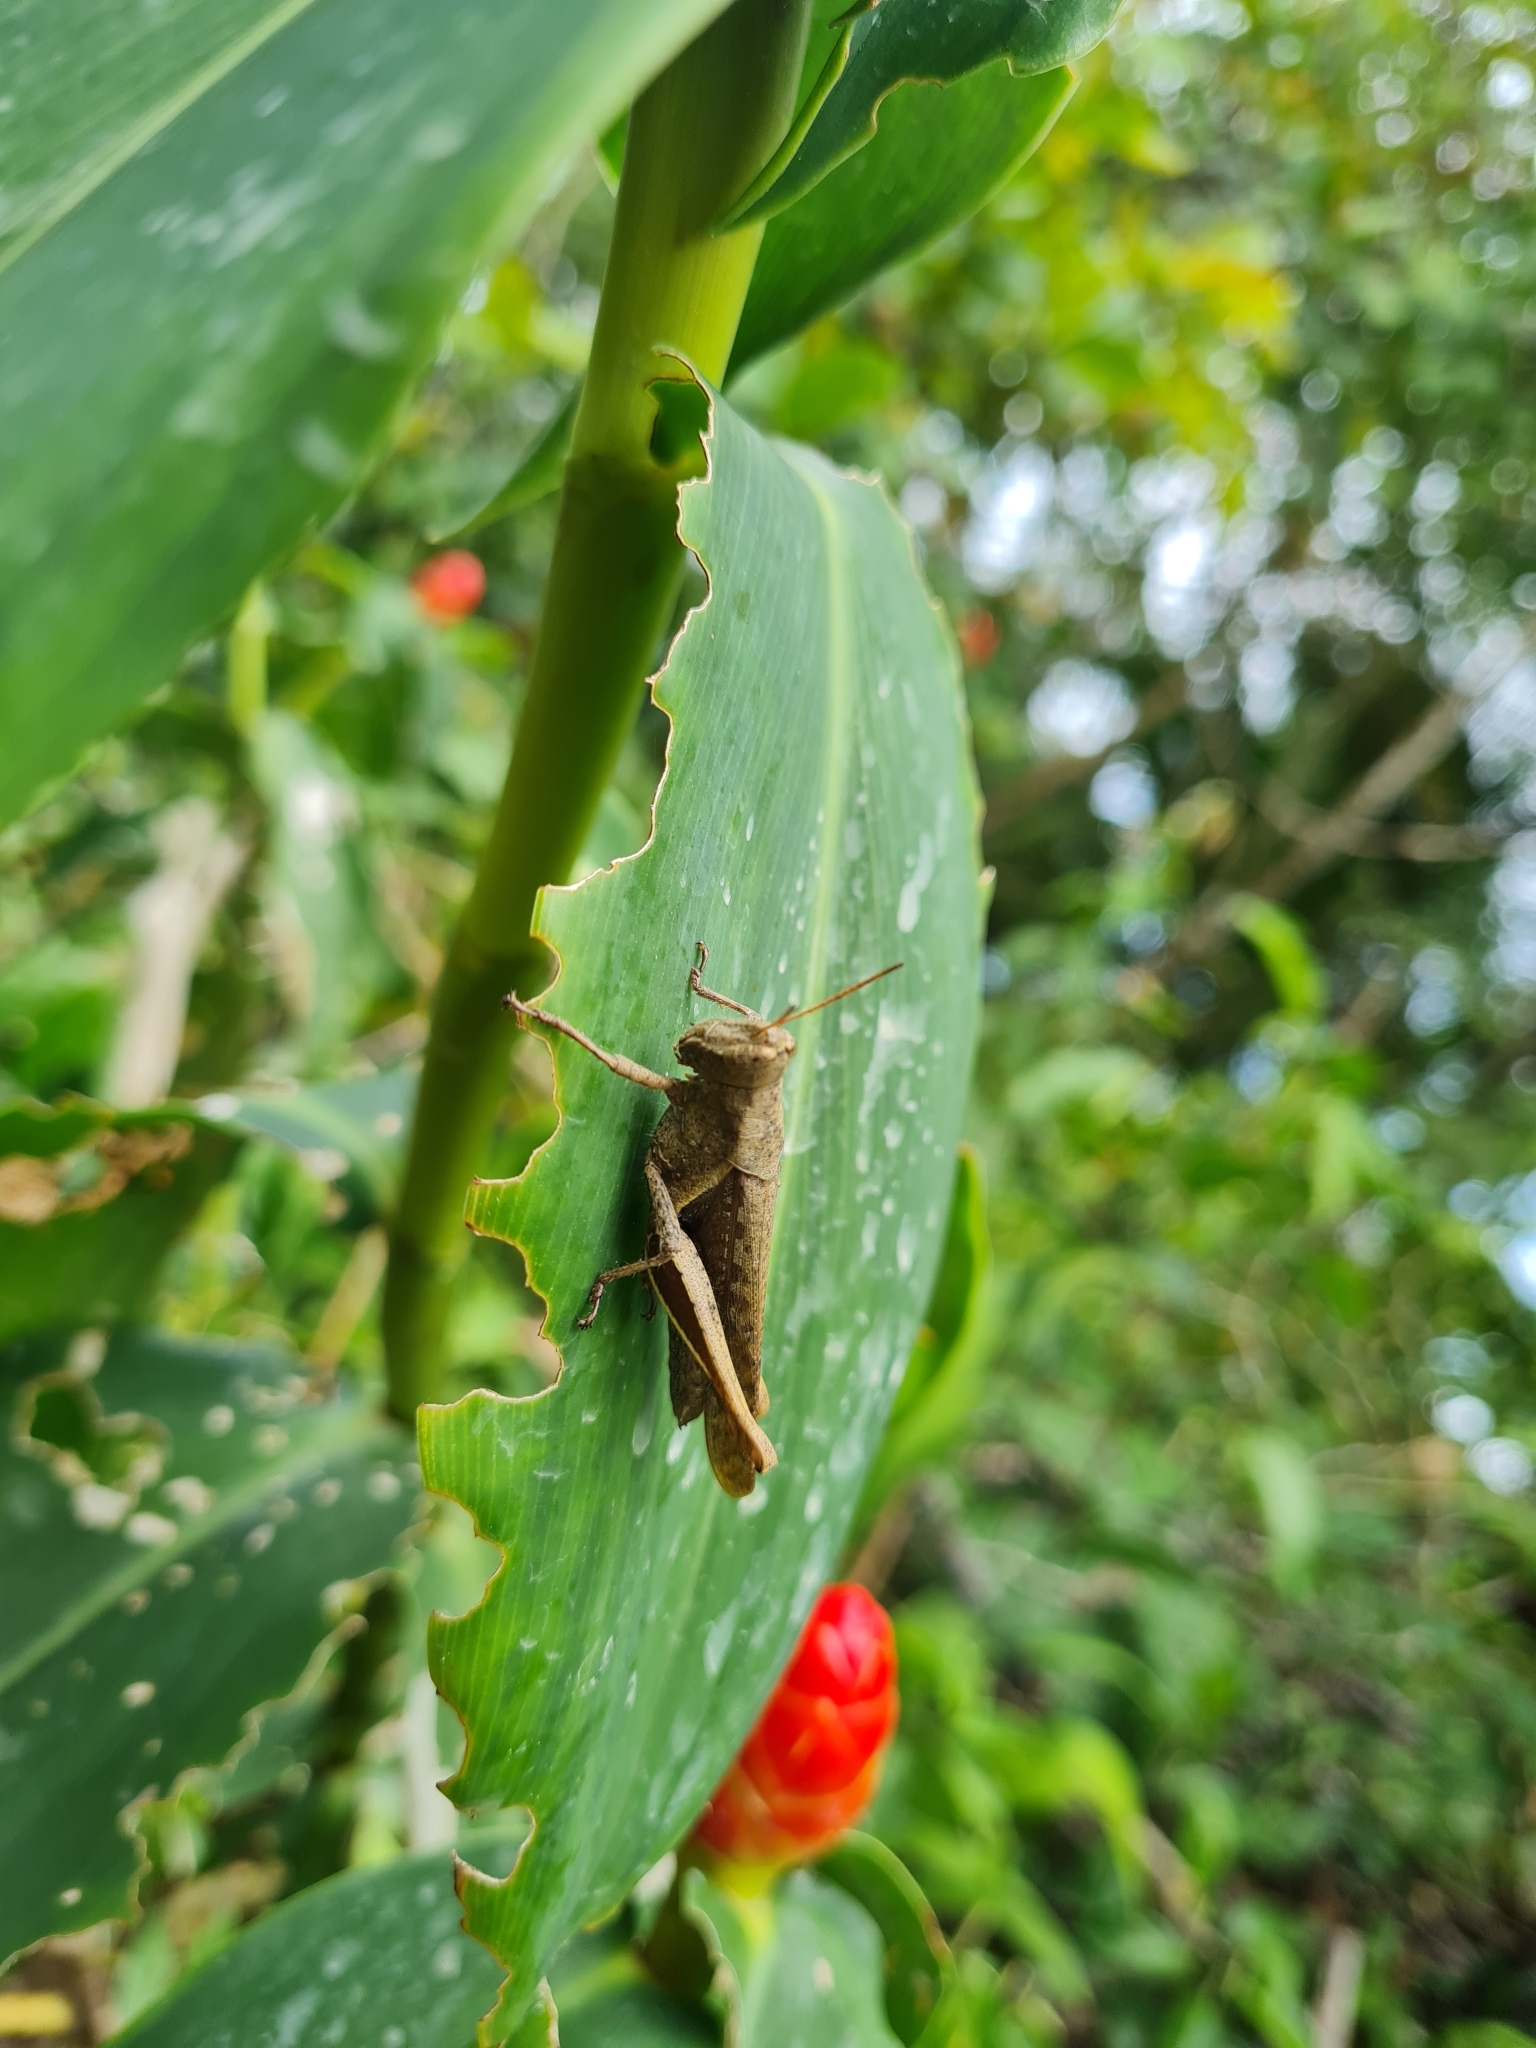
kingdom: Animalia
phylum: Arthropoda
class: Insecta
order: Orthoptera
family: Acrididae
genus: Abracris
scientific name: Abracris flavolineata
